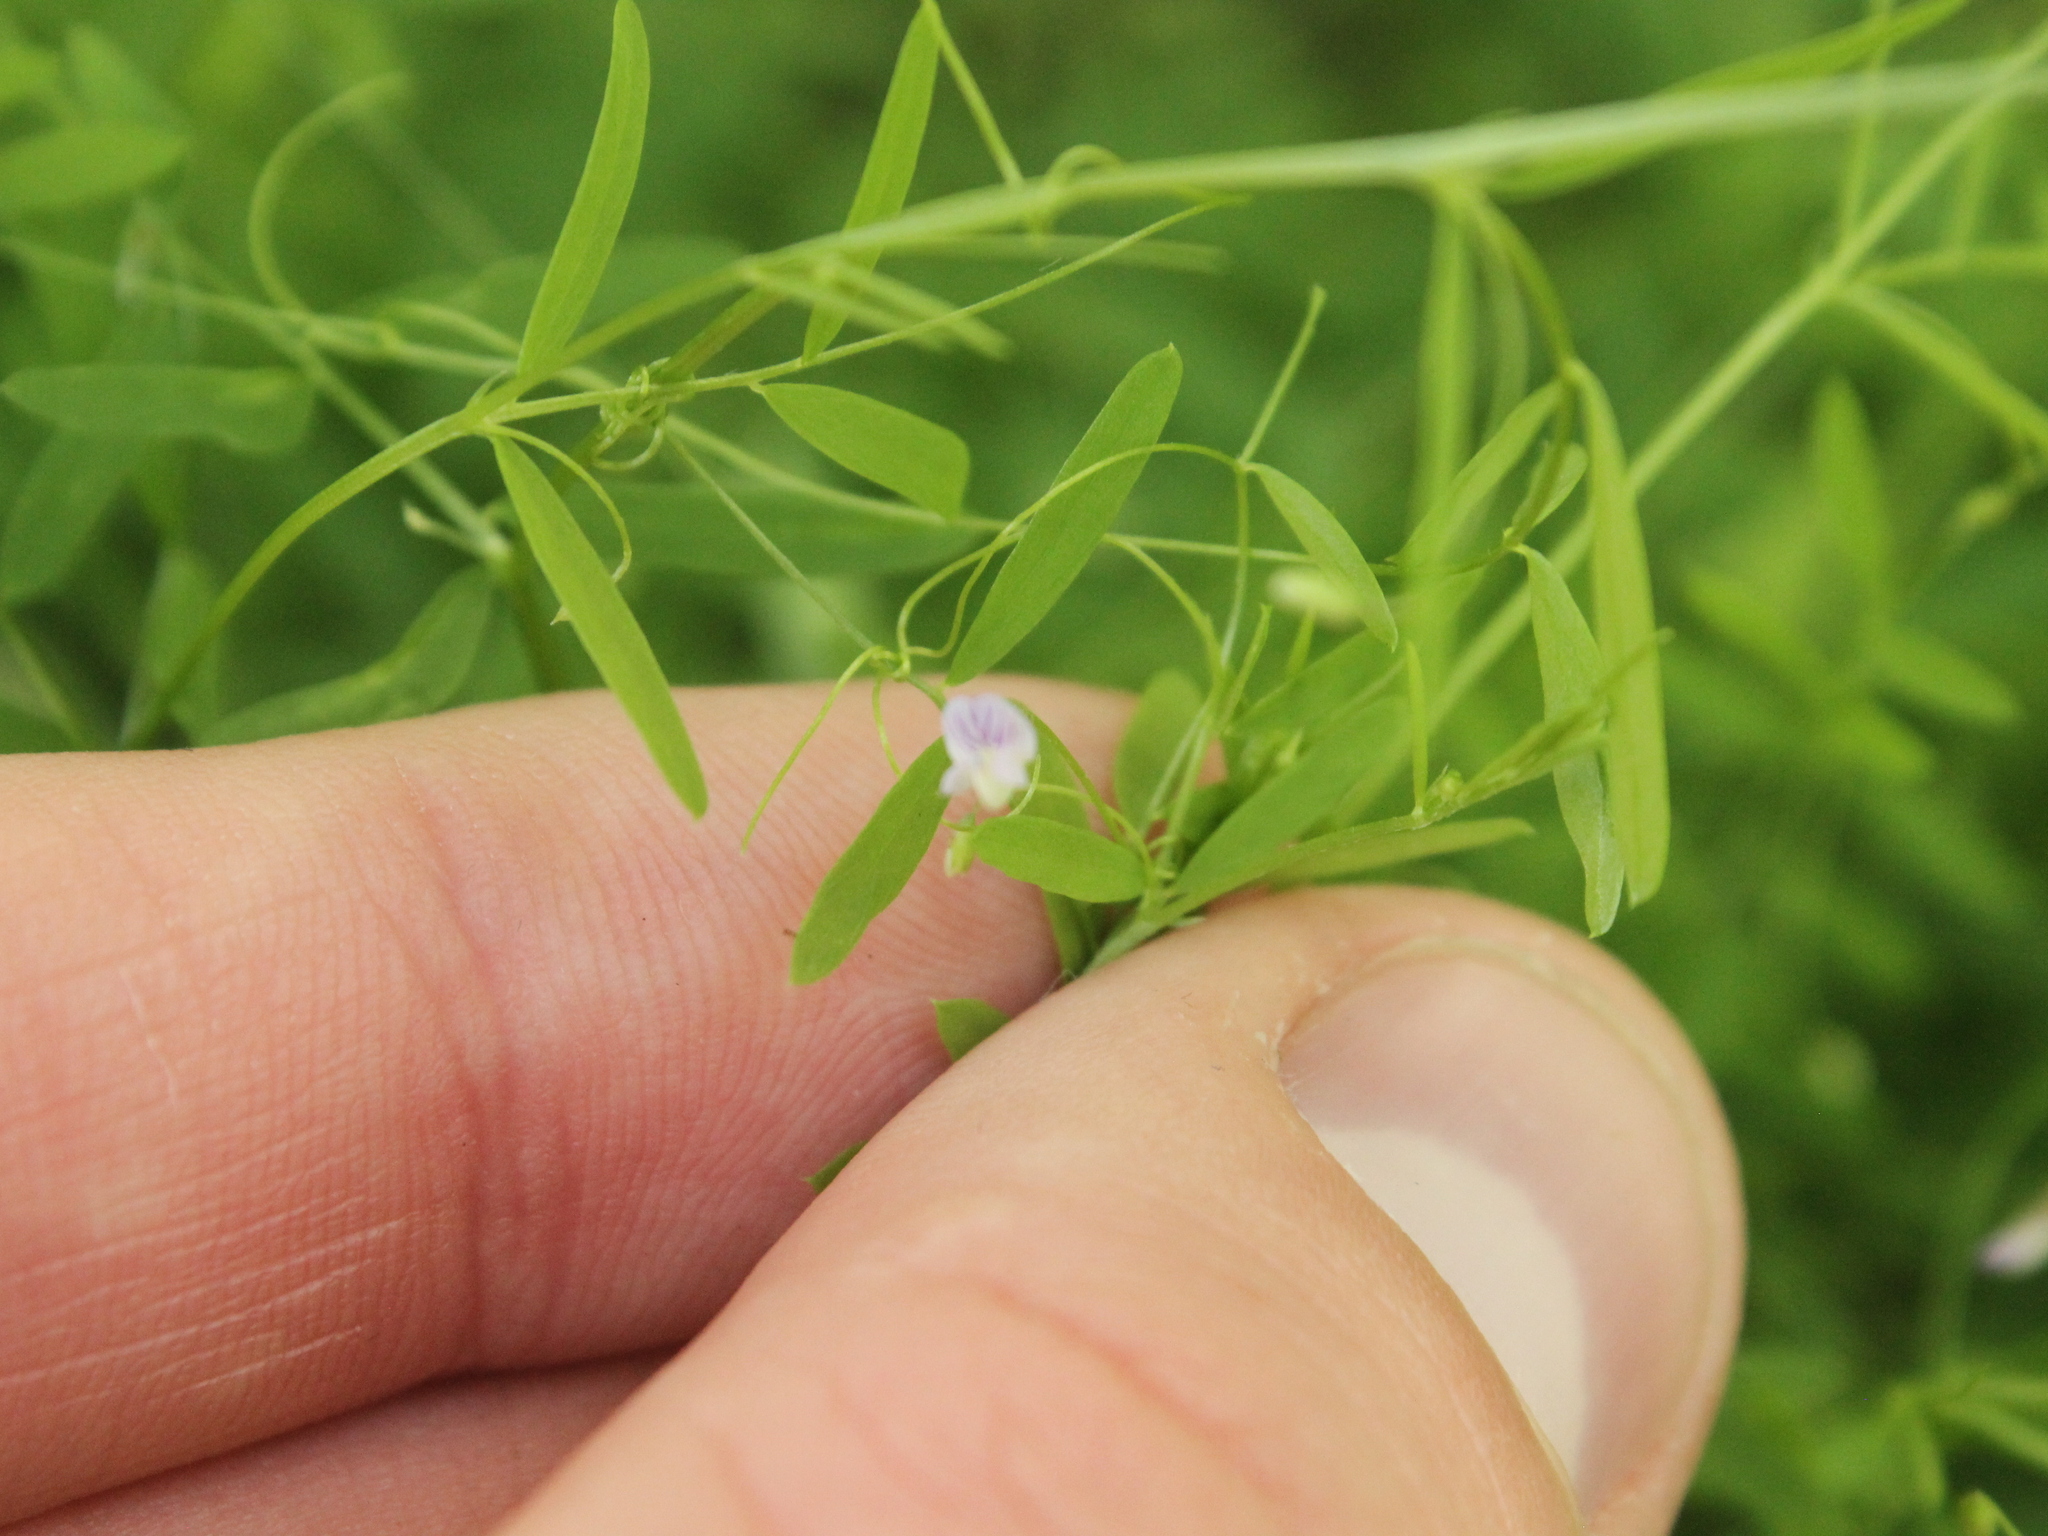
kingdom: Plantae
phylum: Tracheophyta
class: Magnoliopsida
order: Fabales
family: Fabaceae
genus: Vicia
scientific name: Vicia tetrasperma
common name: Smooth tare
